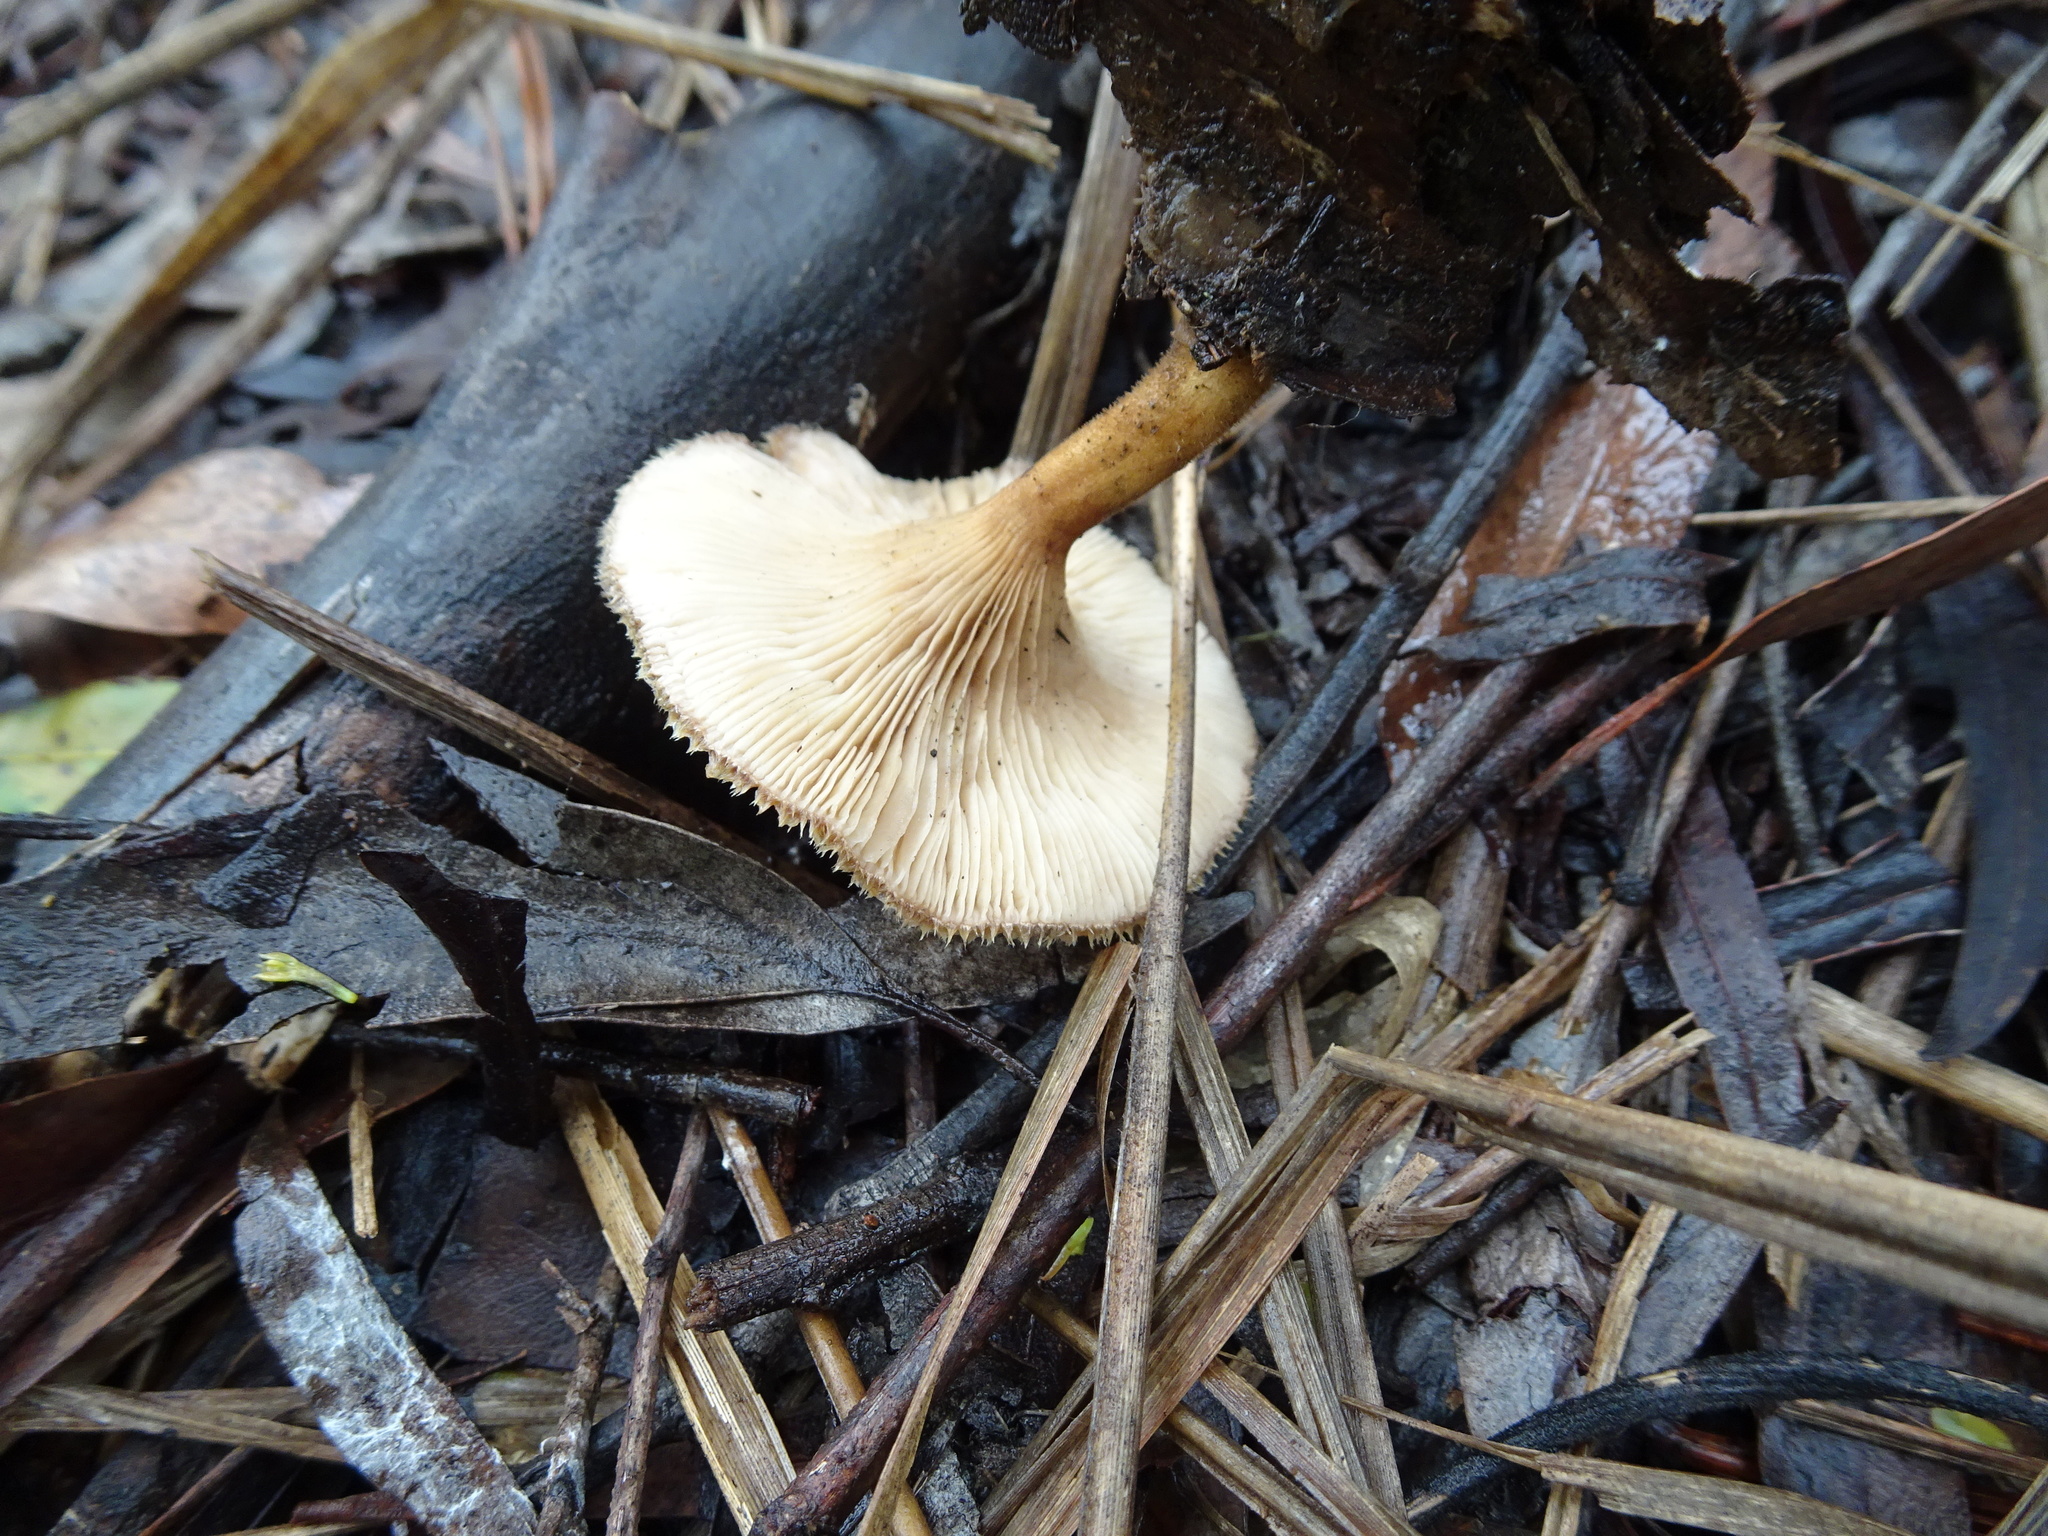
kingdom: Fungi
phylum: Basidiomycota
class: Agaricomycetes
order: Polyporales
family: Polyporaceae
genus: Lentinus
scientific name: Lentinus fasciatus
